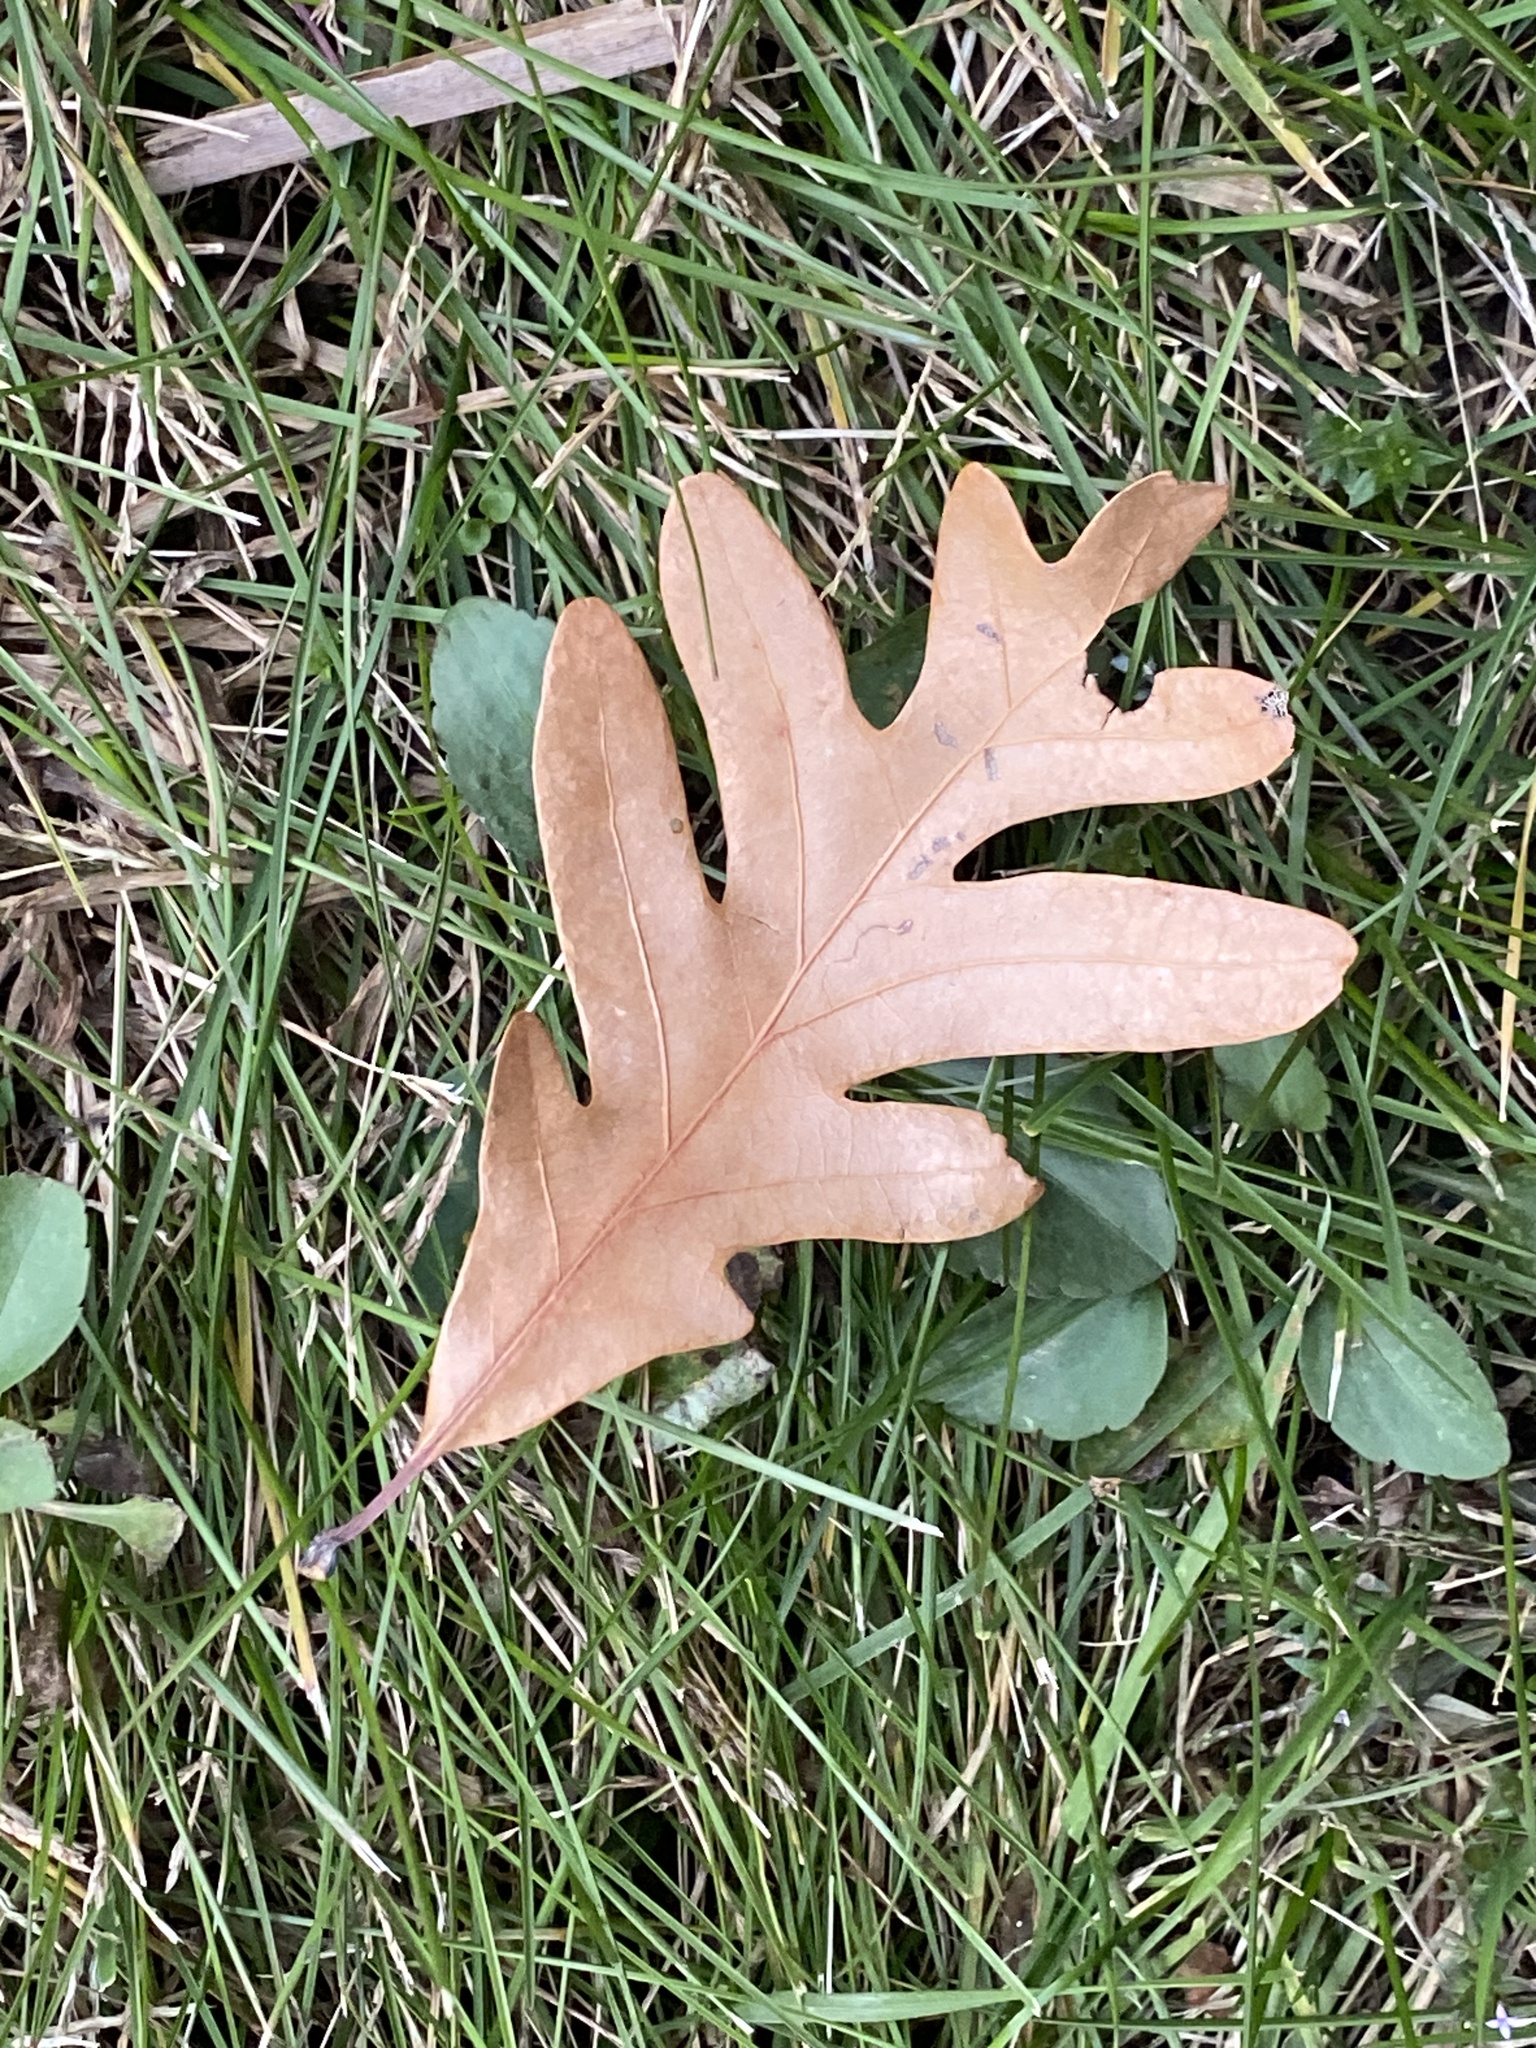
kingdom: Plantae
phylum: Tracheophyta
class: Magnoliopsida
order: Fagales
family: Fagaceae
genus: Quercus
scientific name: Quercus alba
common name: White oak
